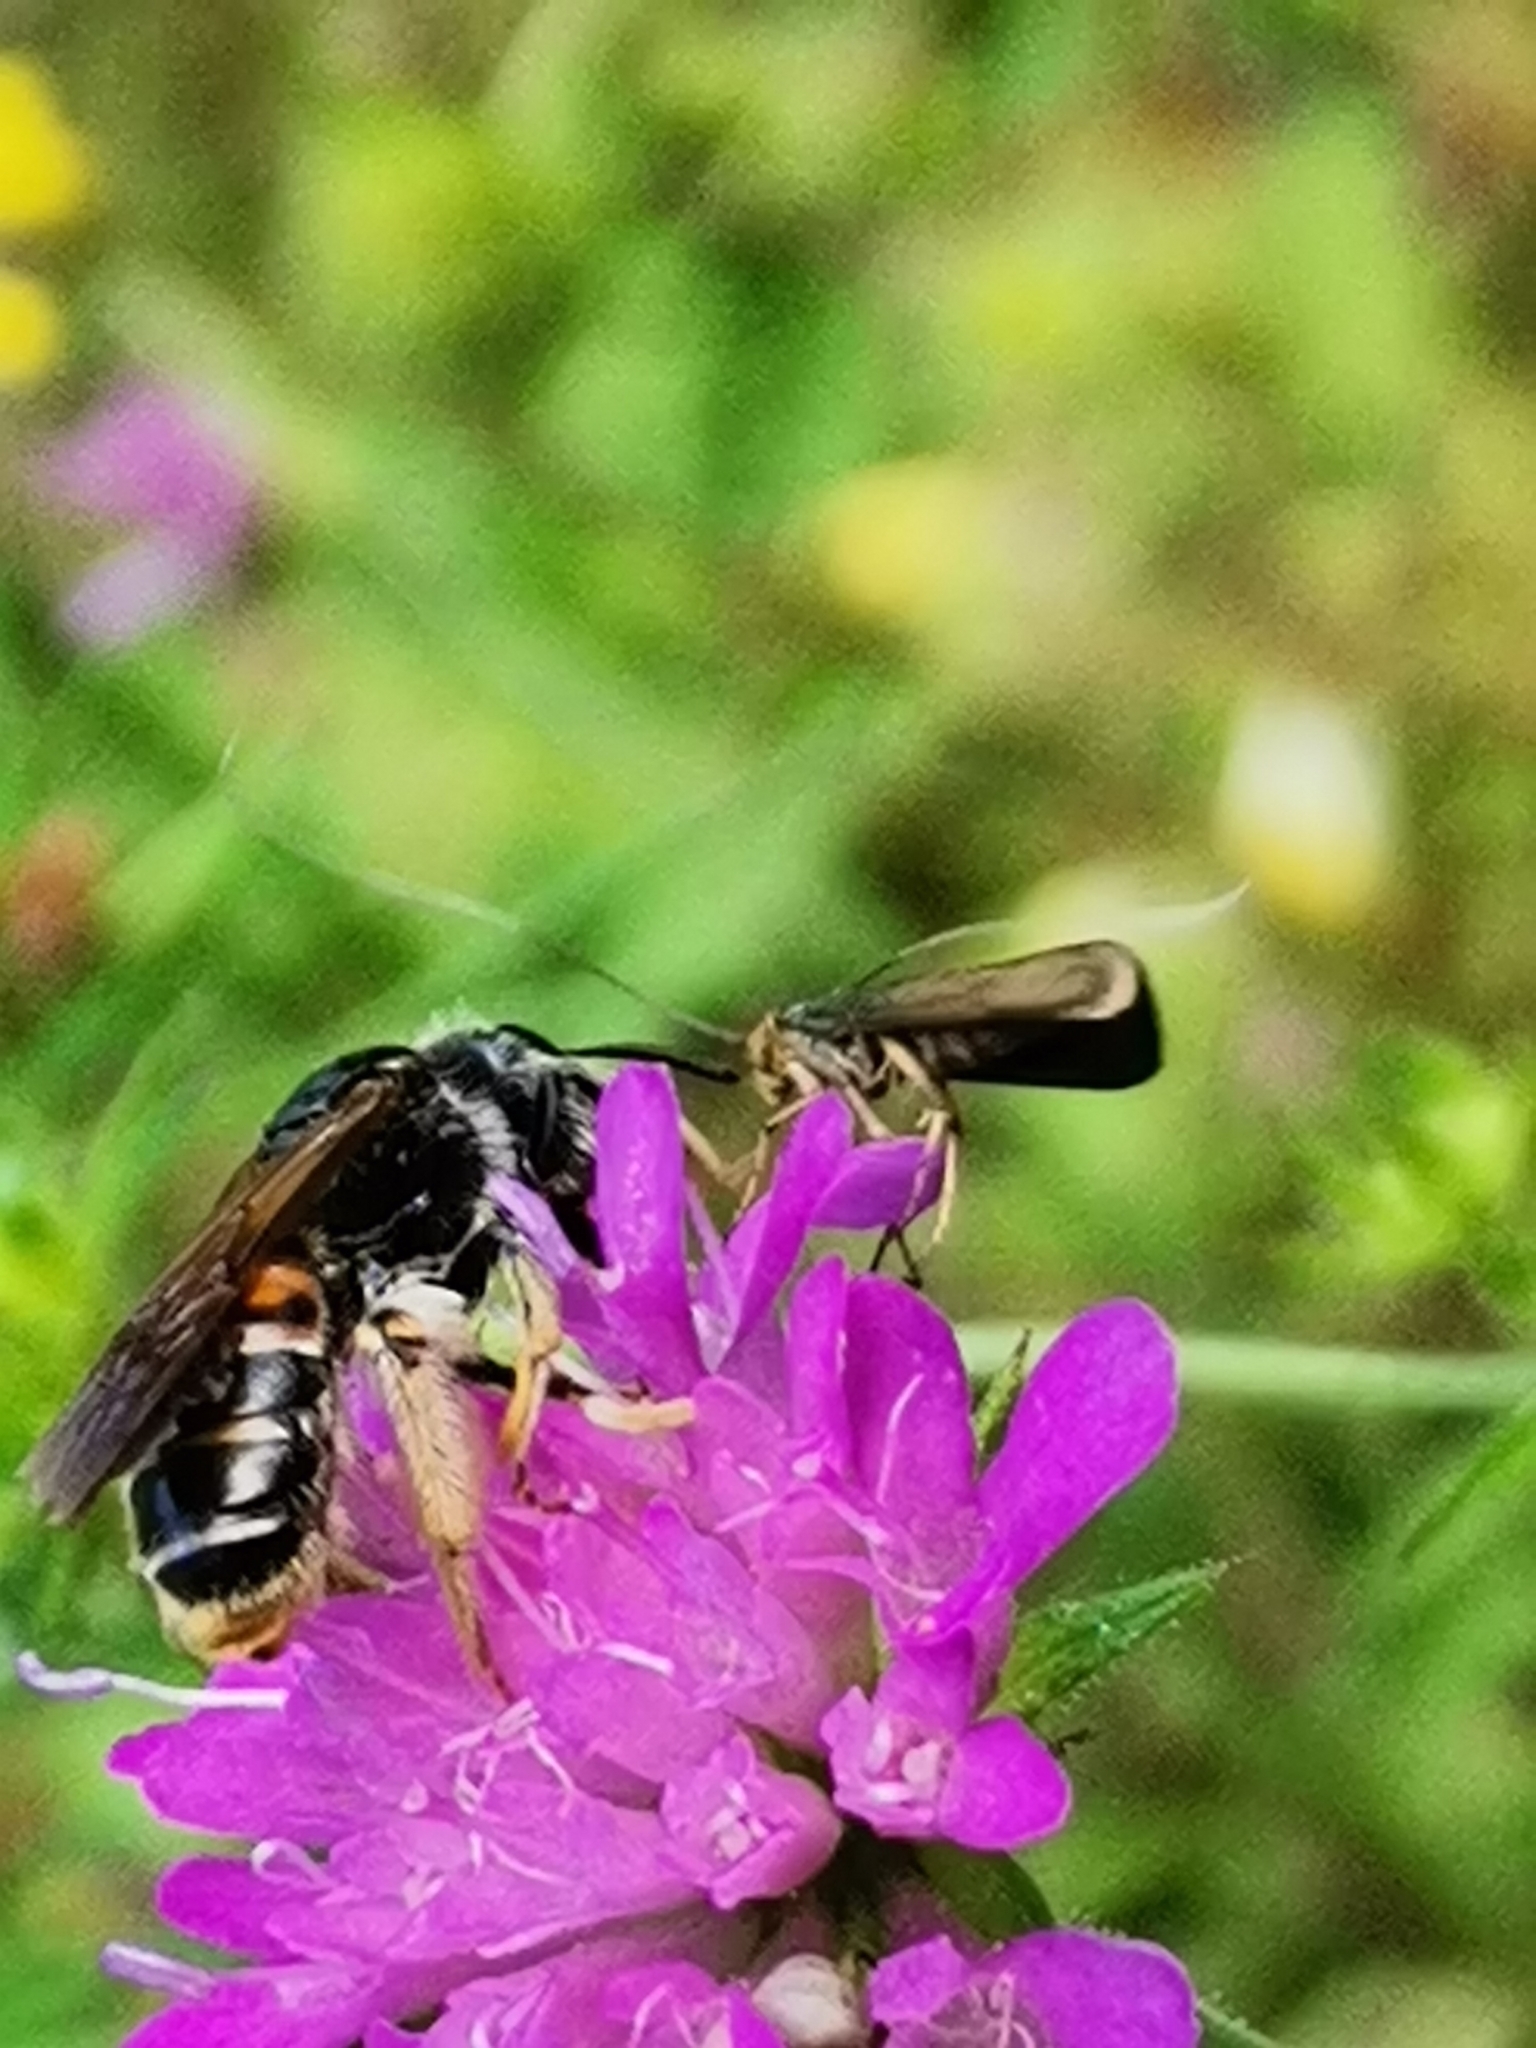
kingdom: Animalia
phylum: Arthropoda
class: Insecta
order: Hymenoptera
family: Andrenidae
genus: Andrena
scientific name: Andrena hattorfiana
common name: Large scabious mining bee
